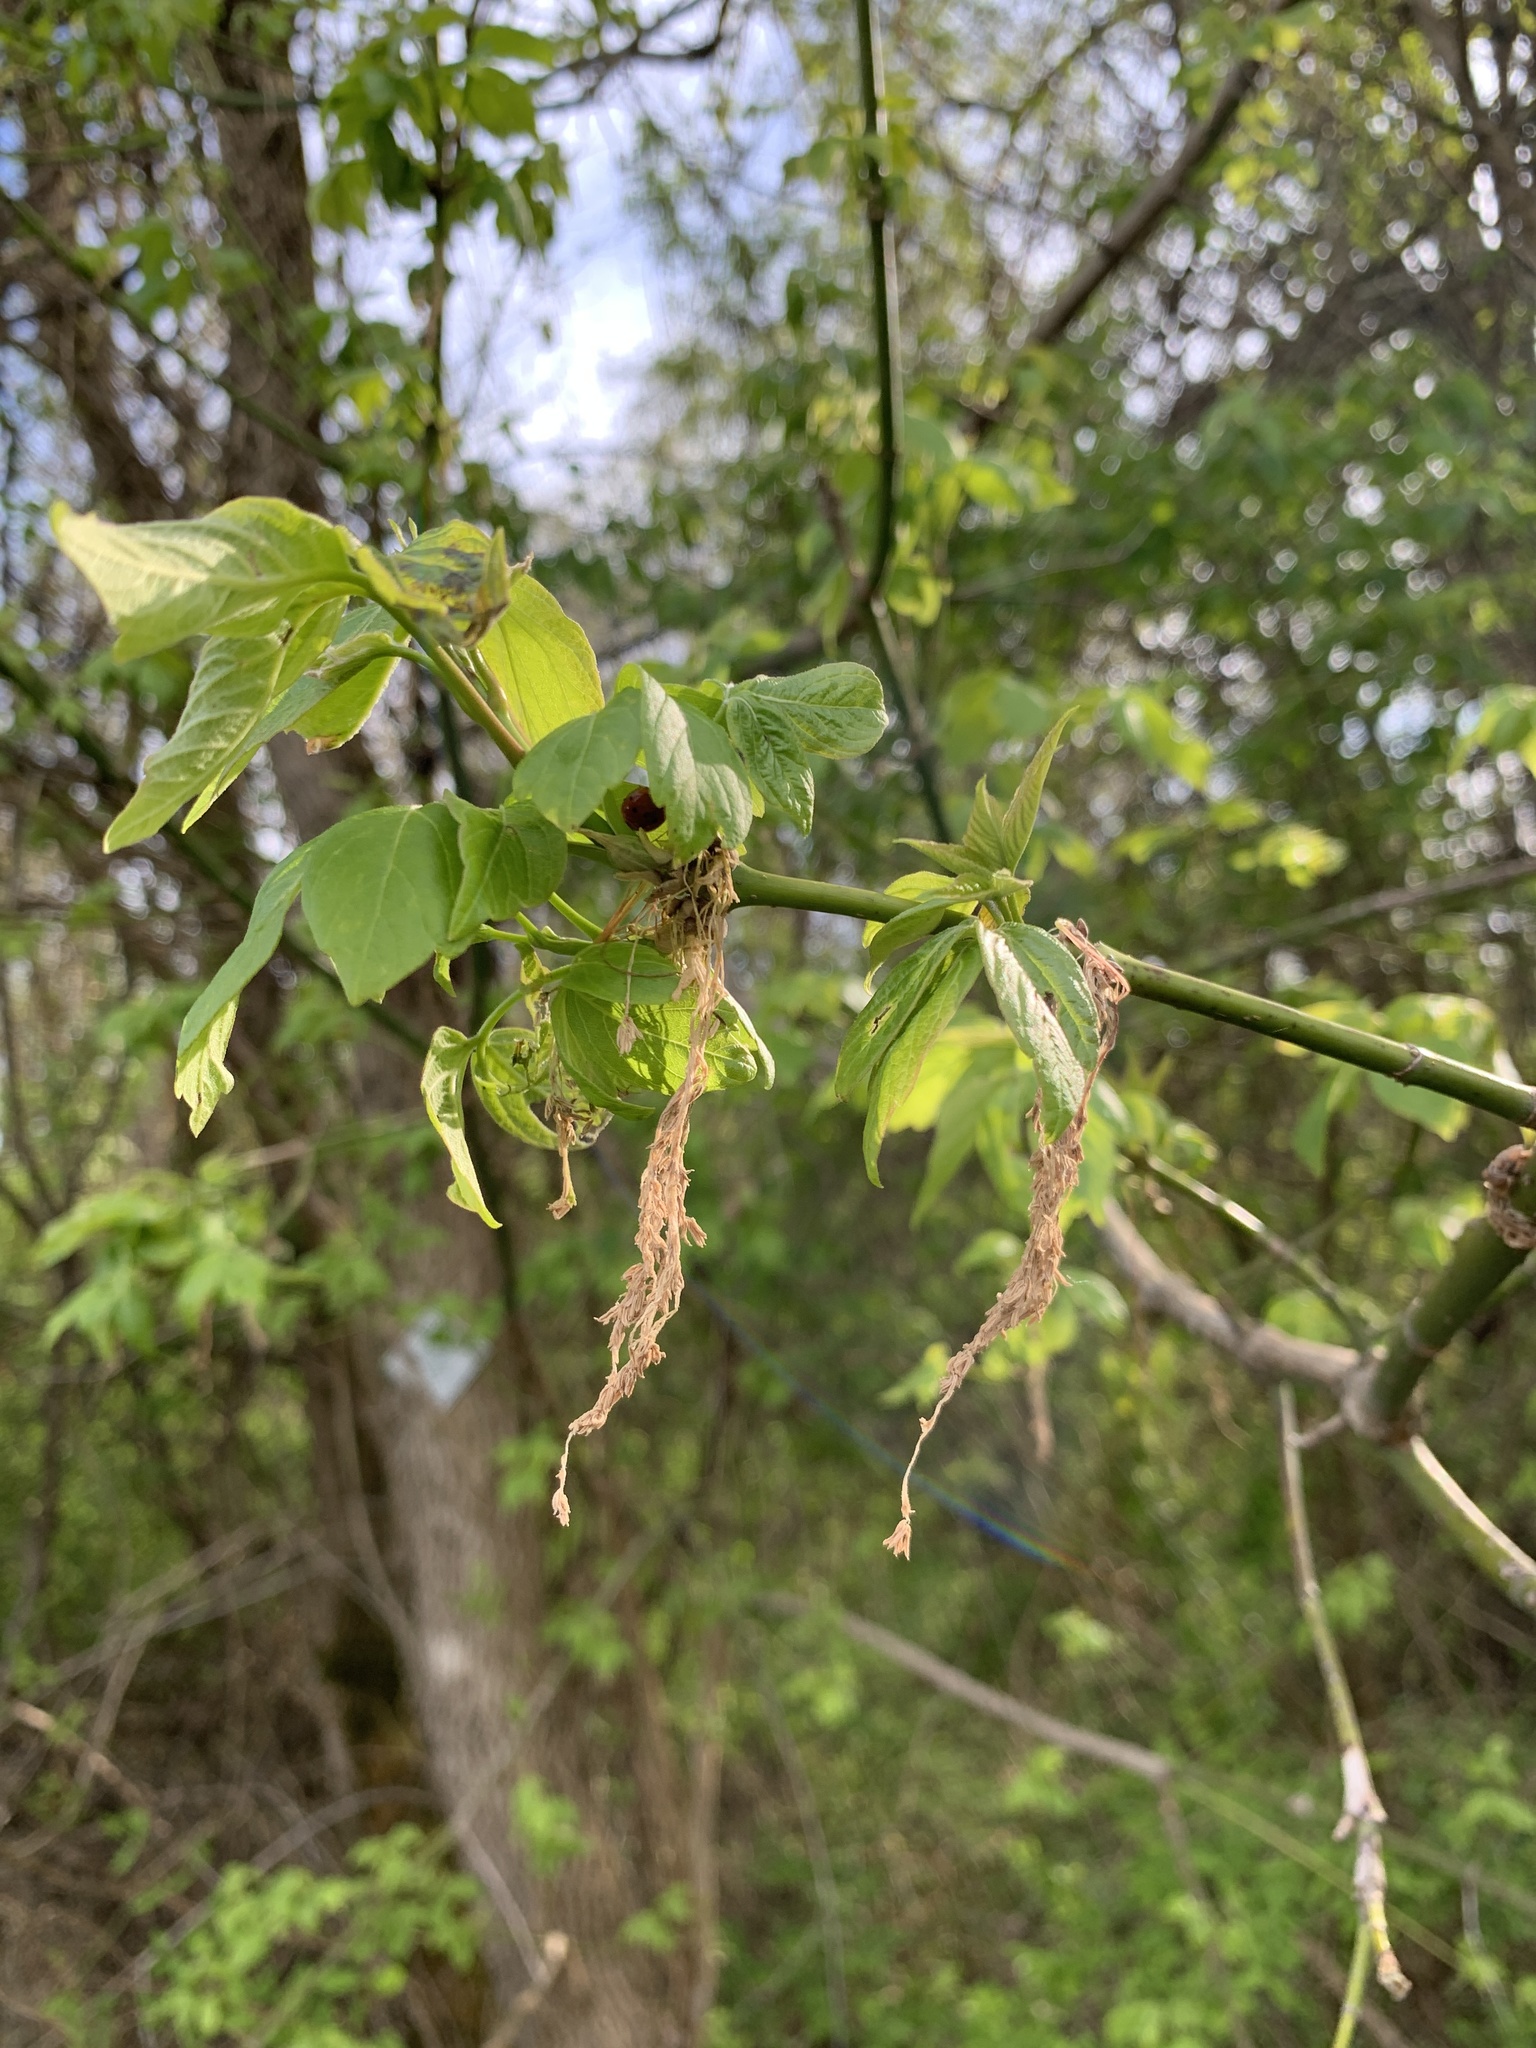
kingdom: Plantae
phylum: Tracheophyta
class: Magnoliopsida
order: Sapindales
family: Sapindaceae
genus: Acer
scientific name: Acer negundo
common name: Ashleaf maple
